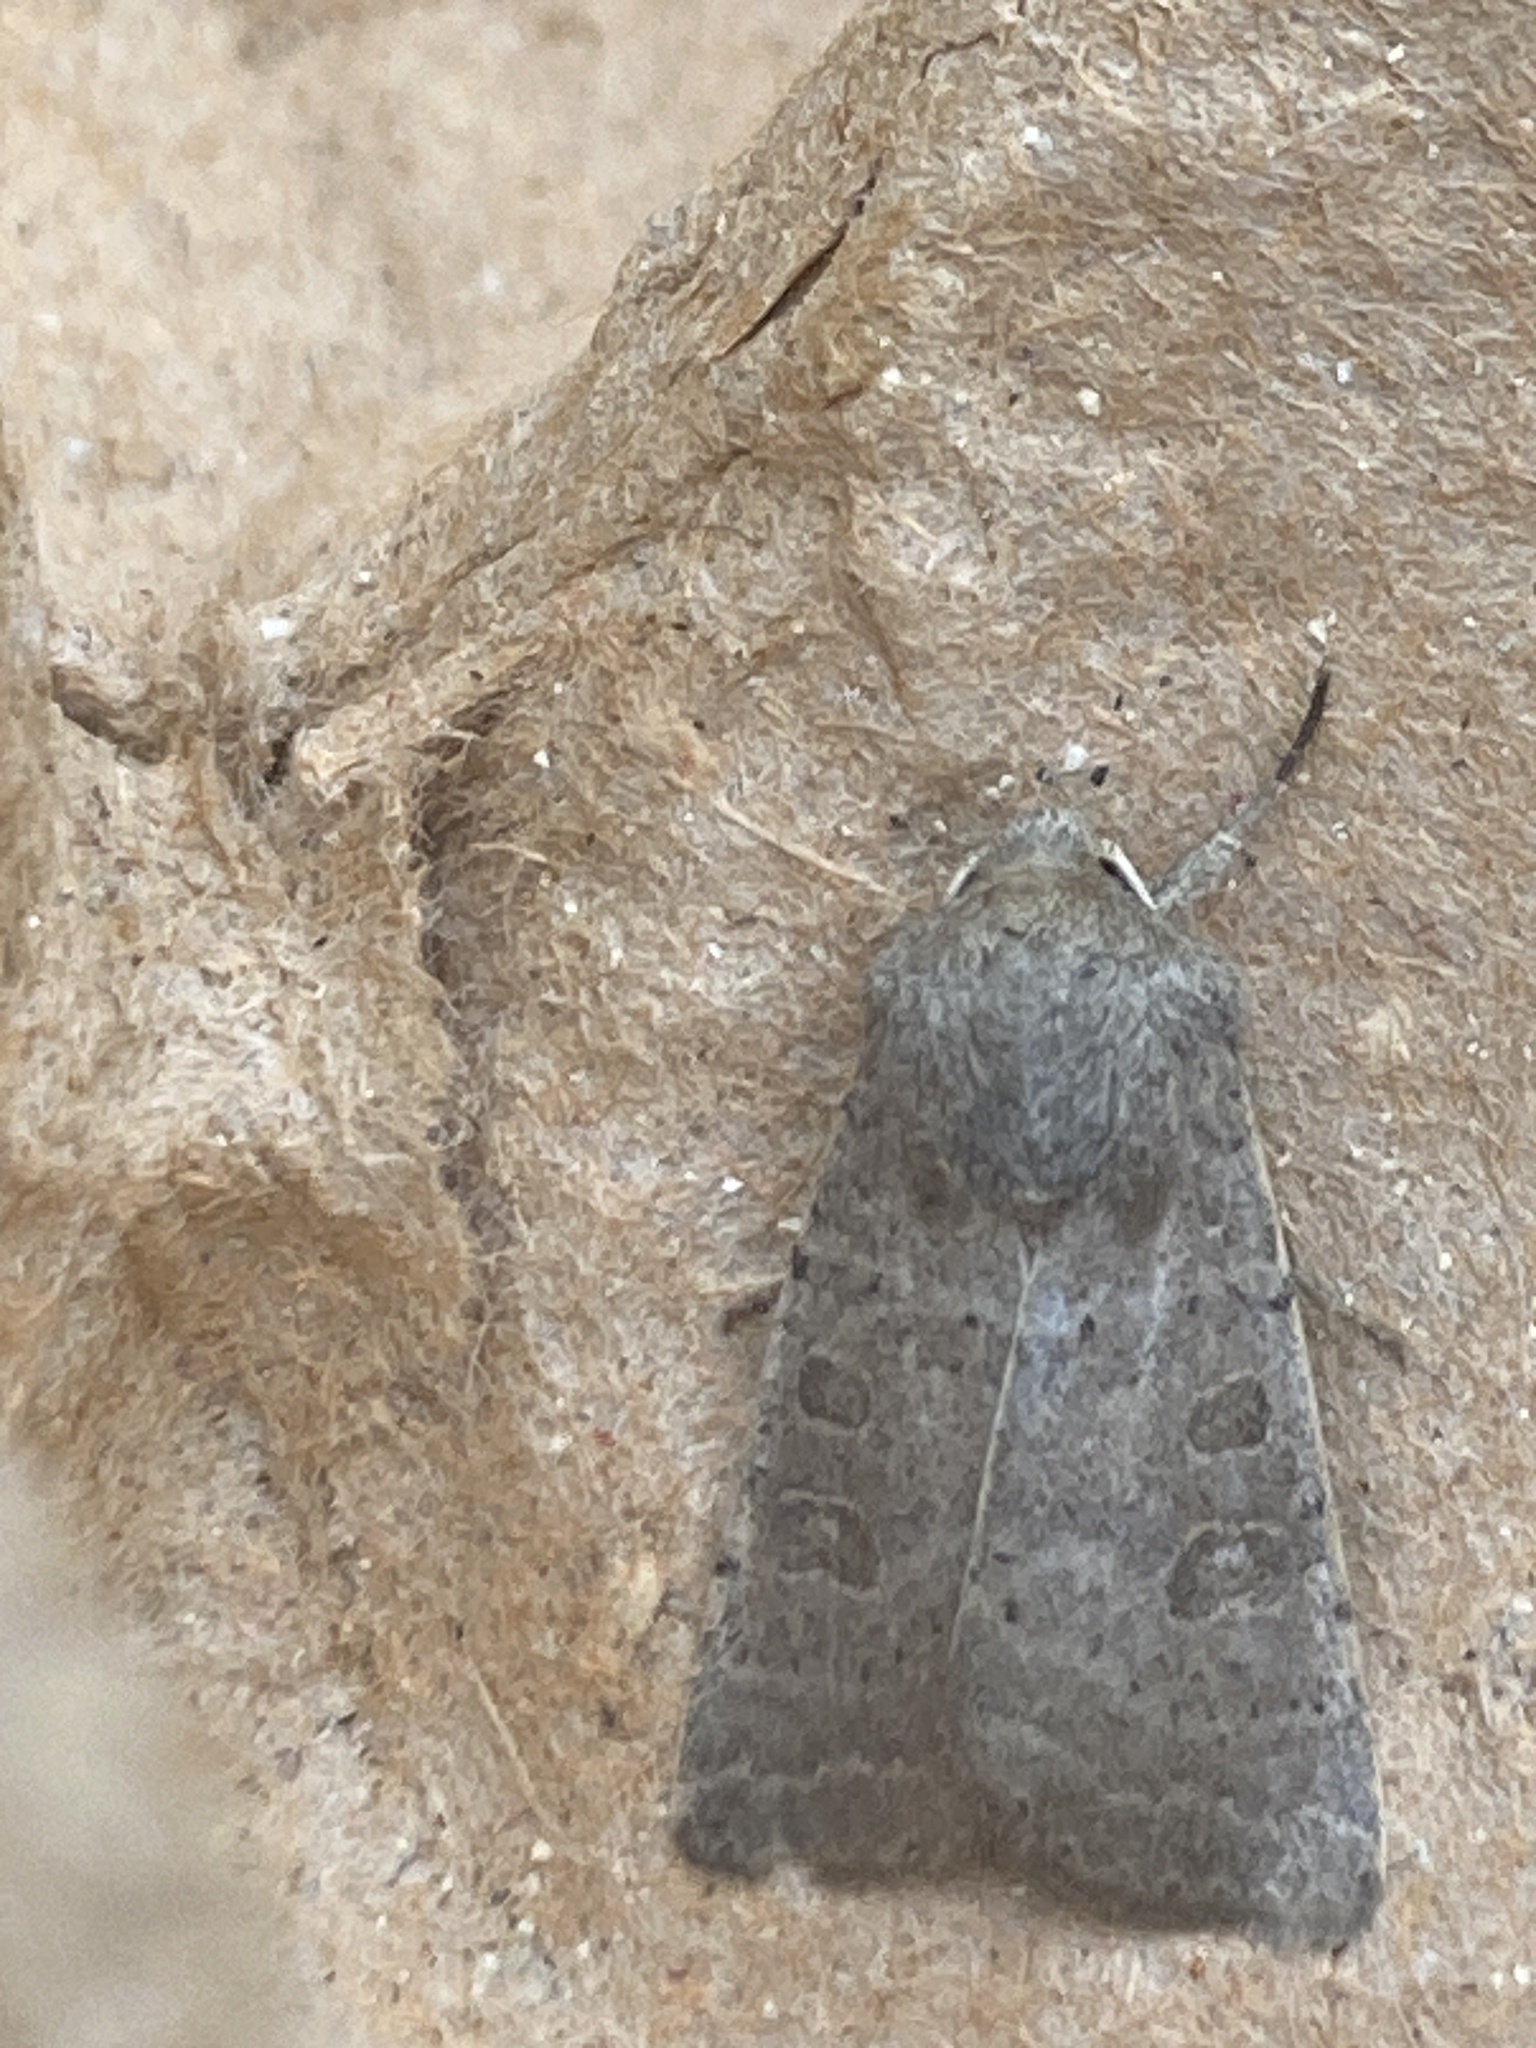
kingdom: Animalia
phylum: Arthropoda
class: Insecta
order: Lepidoptera
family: Noctuidae
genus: Hoplodrina
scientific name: Hoplodrina ambigua
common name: Vine's rustic
